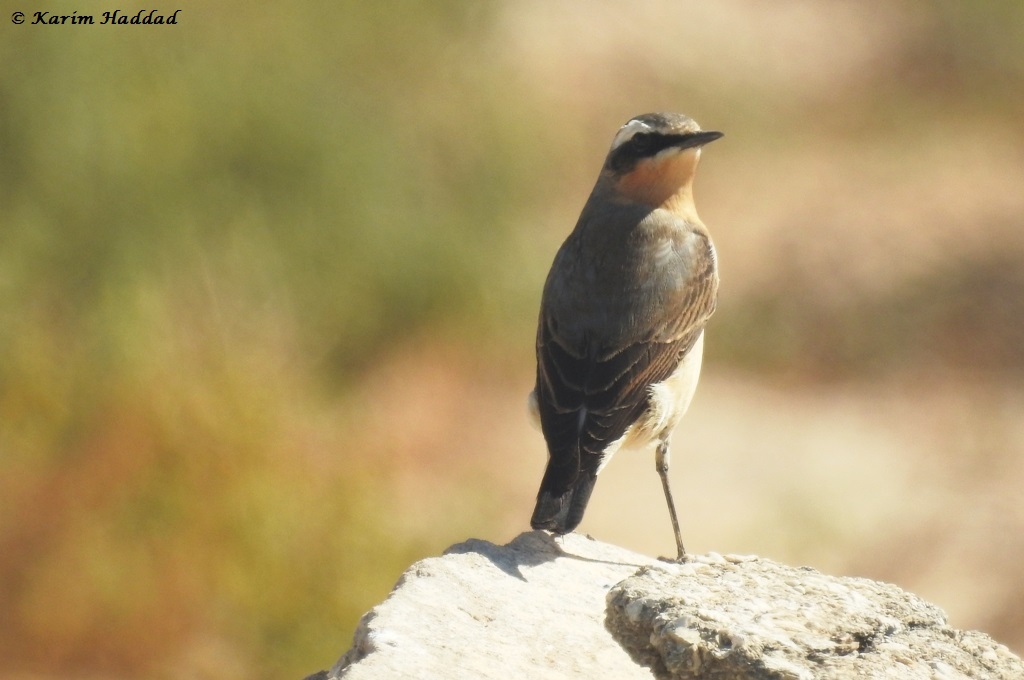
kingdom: Animalia
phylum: Chordata
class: Aves
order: Passeriformes
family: Muscicapidae
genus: Oenanthe
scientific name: Oenanthe oenanthe
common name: Northern wheatear
